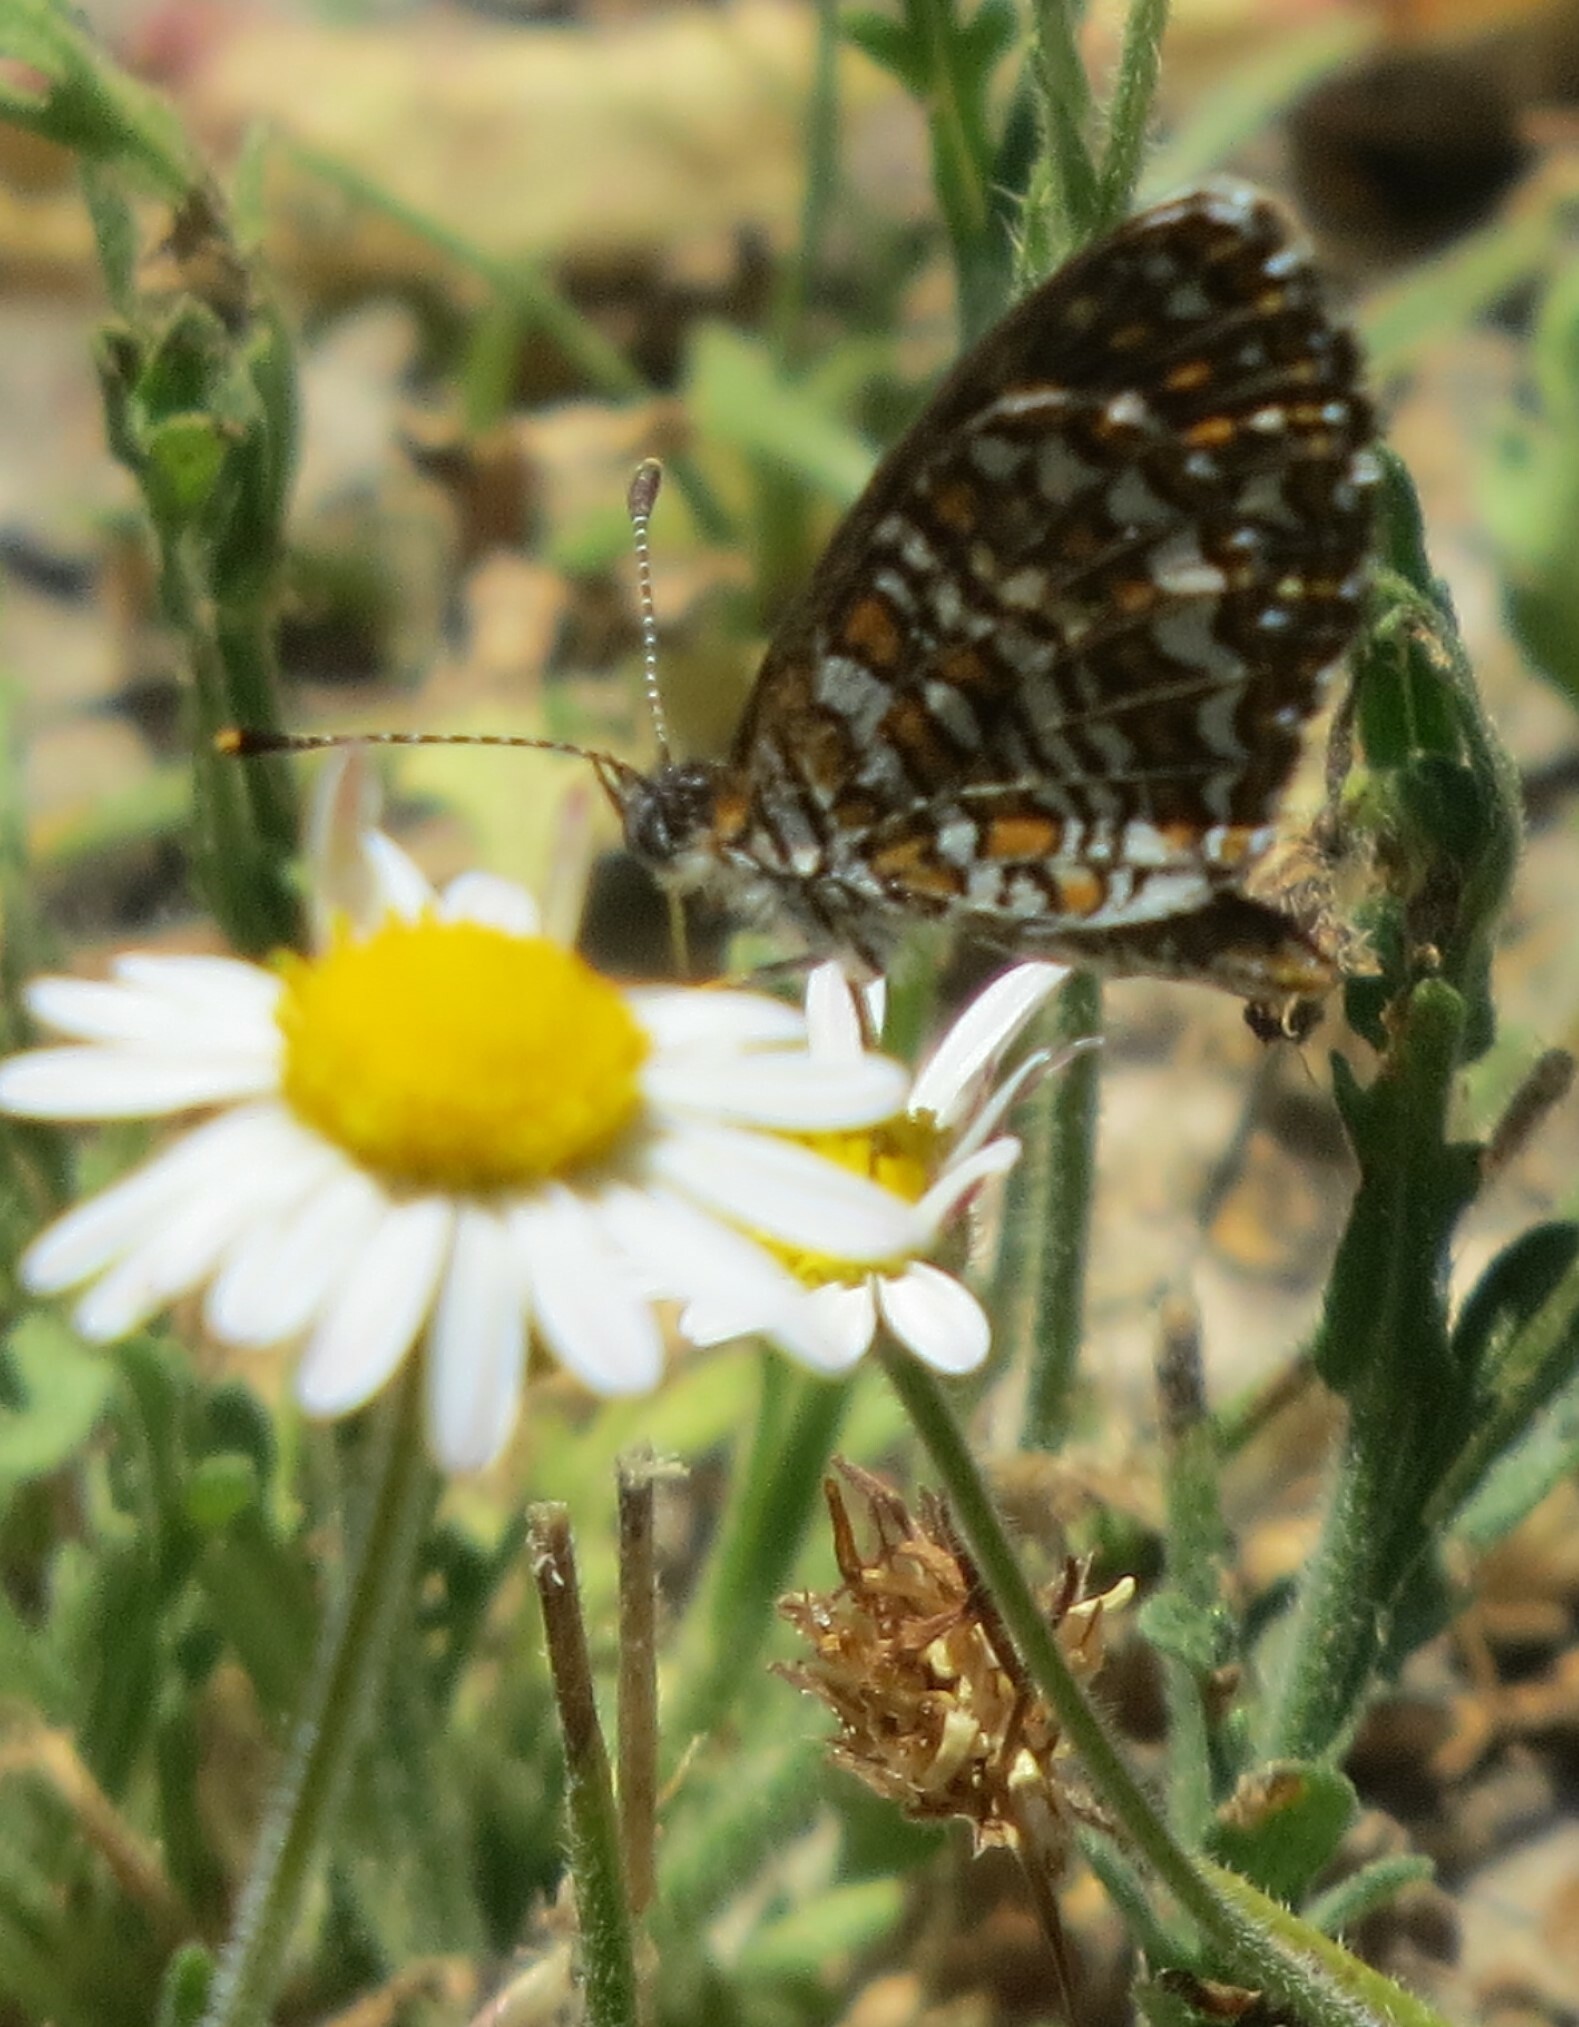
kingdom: Animalia
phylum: Arthropoda
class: Insecta
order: Lepidoptera
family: Nymphalidae
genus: Texola
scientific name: Texola elada
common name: Elada checkerspot
